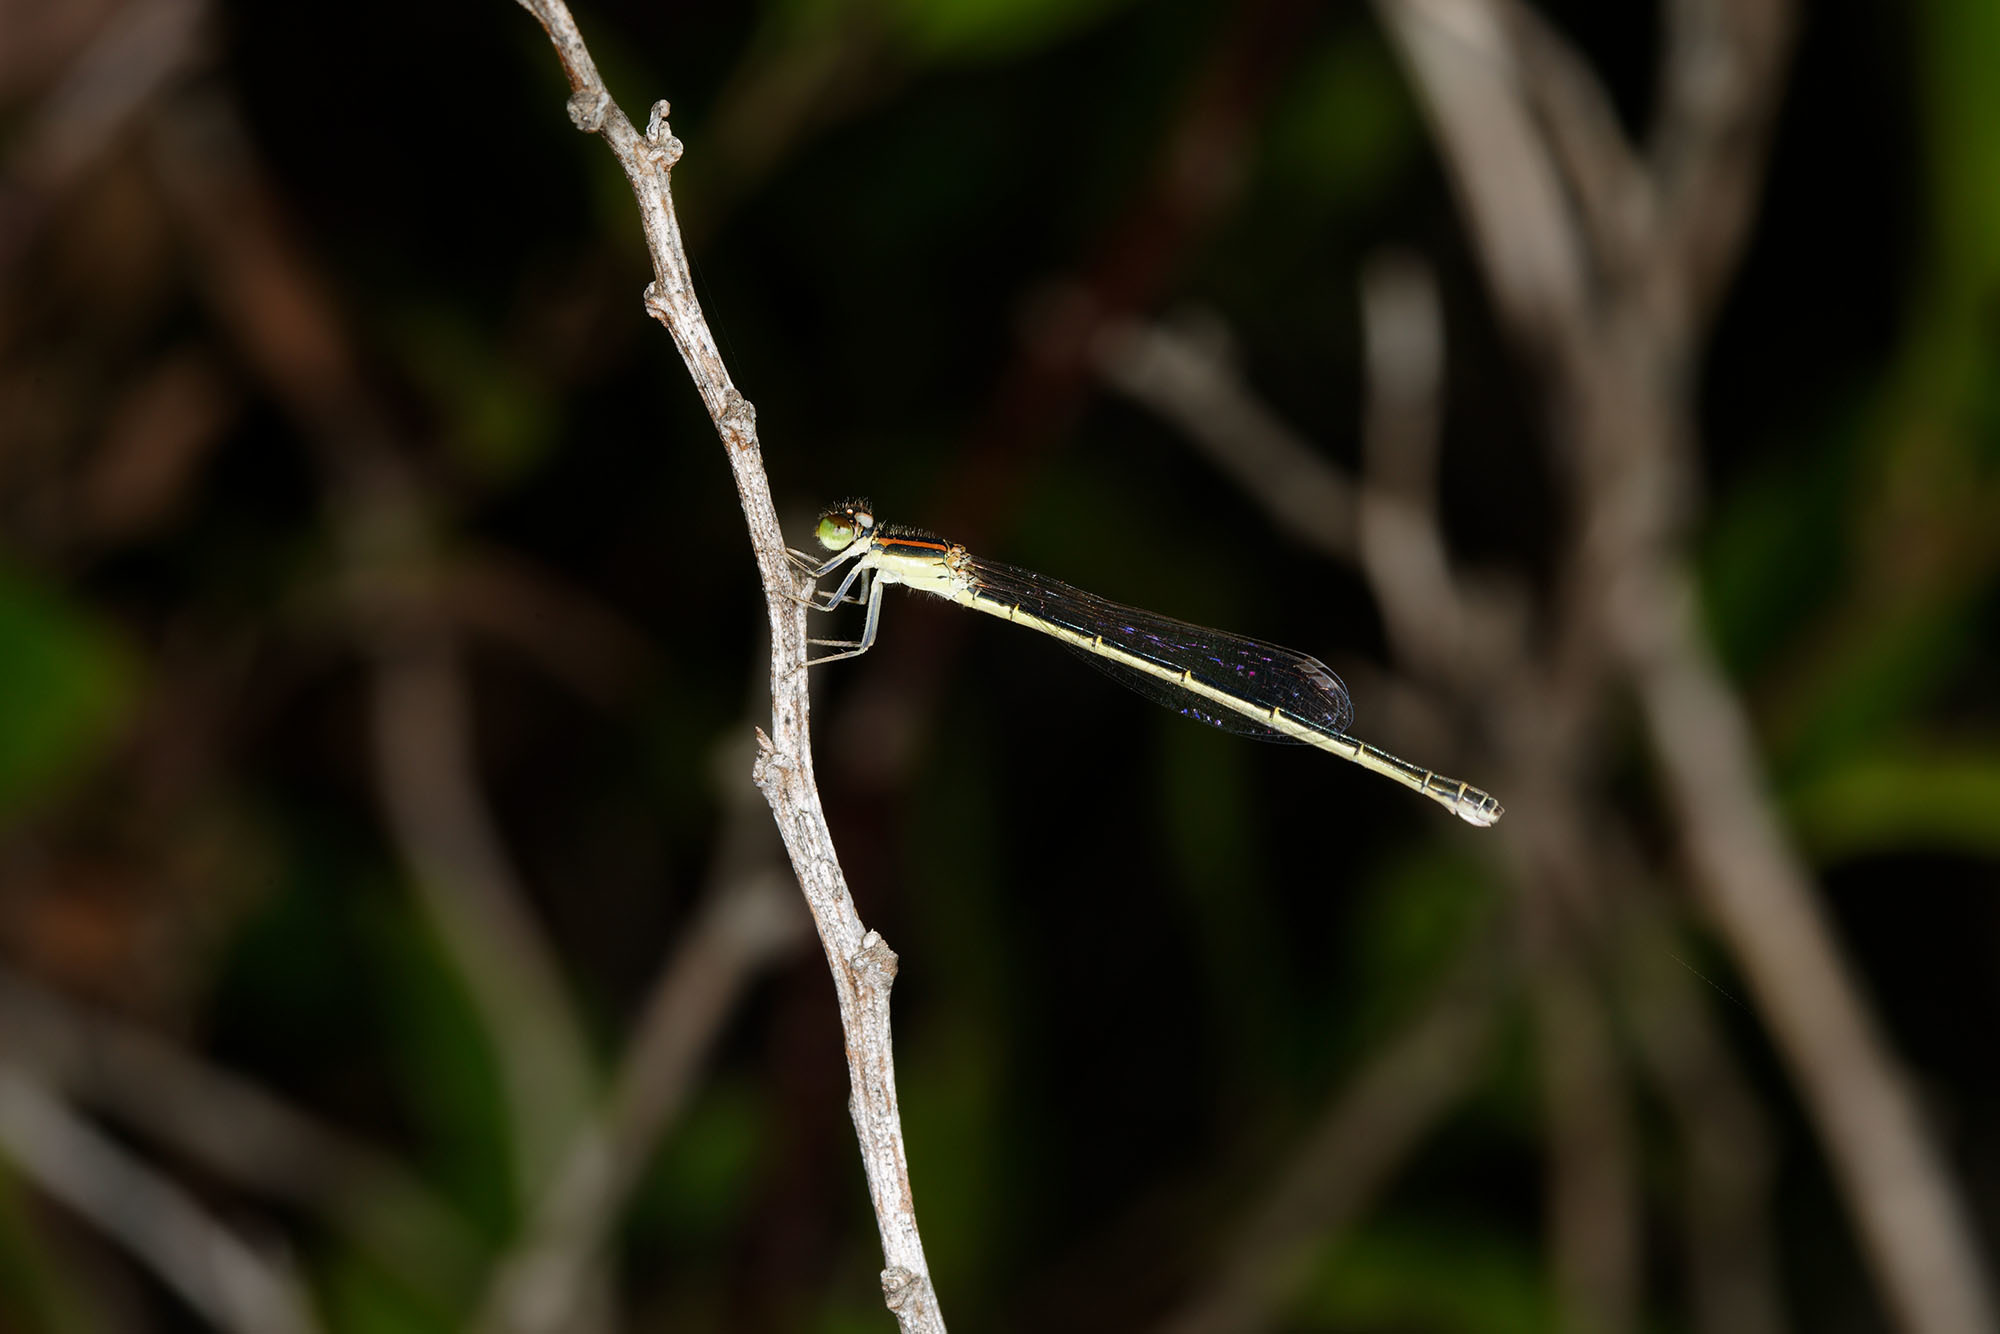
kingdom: Animalia
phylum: Arthropoda
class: Insecta
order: Odonata
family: Coenagrionidae
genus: Ischnura
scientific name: Ischnura aurora
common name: Gossamer damselfly
